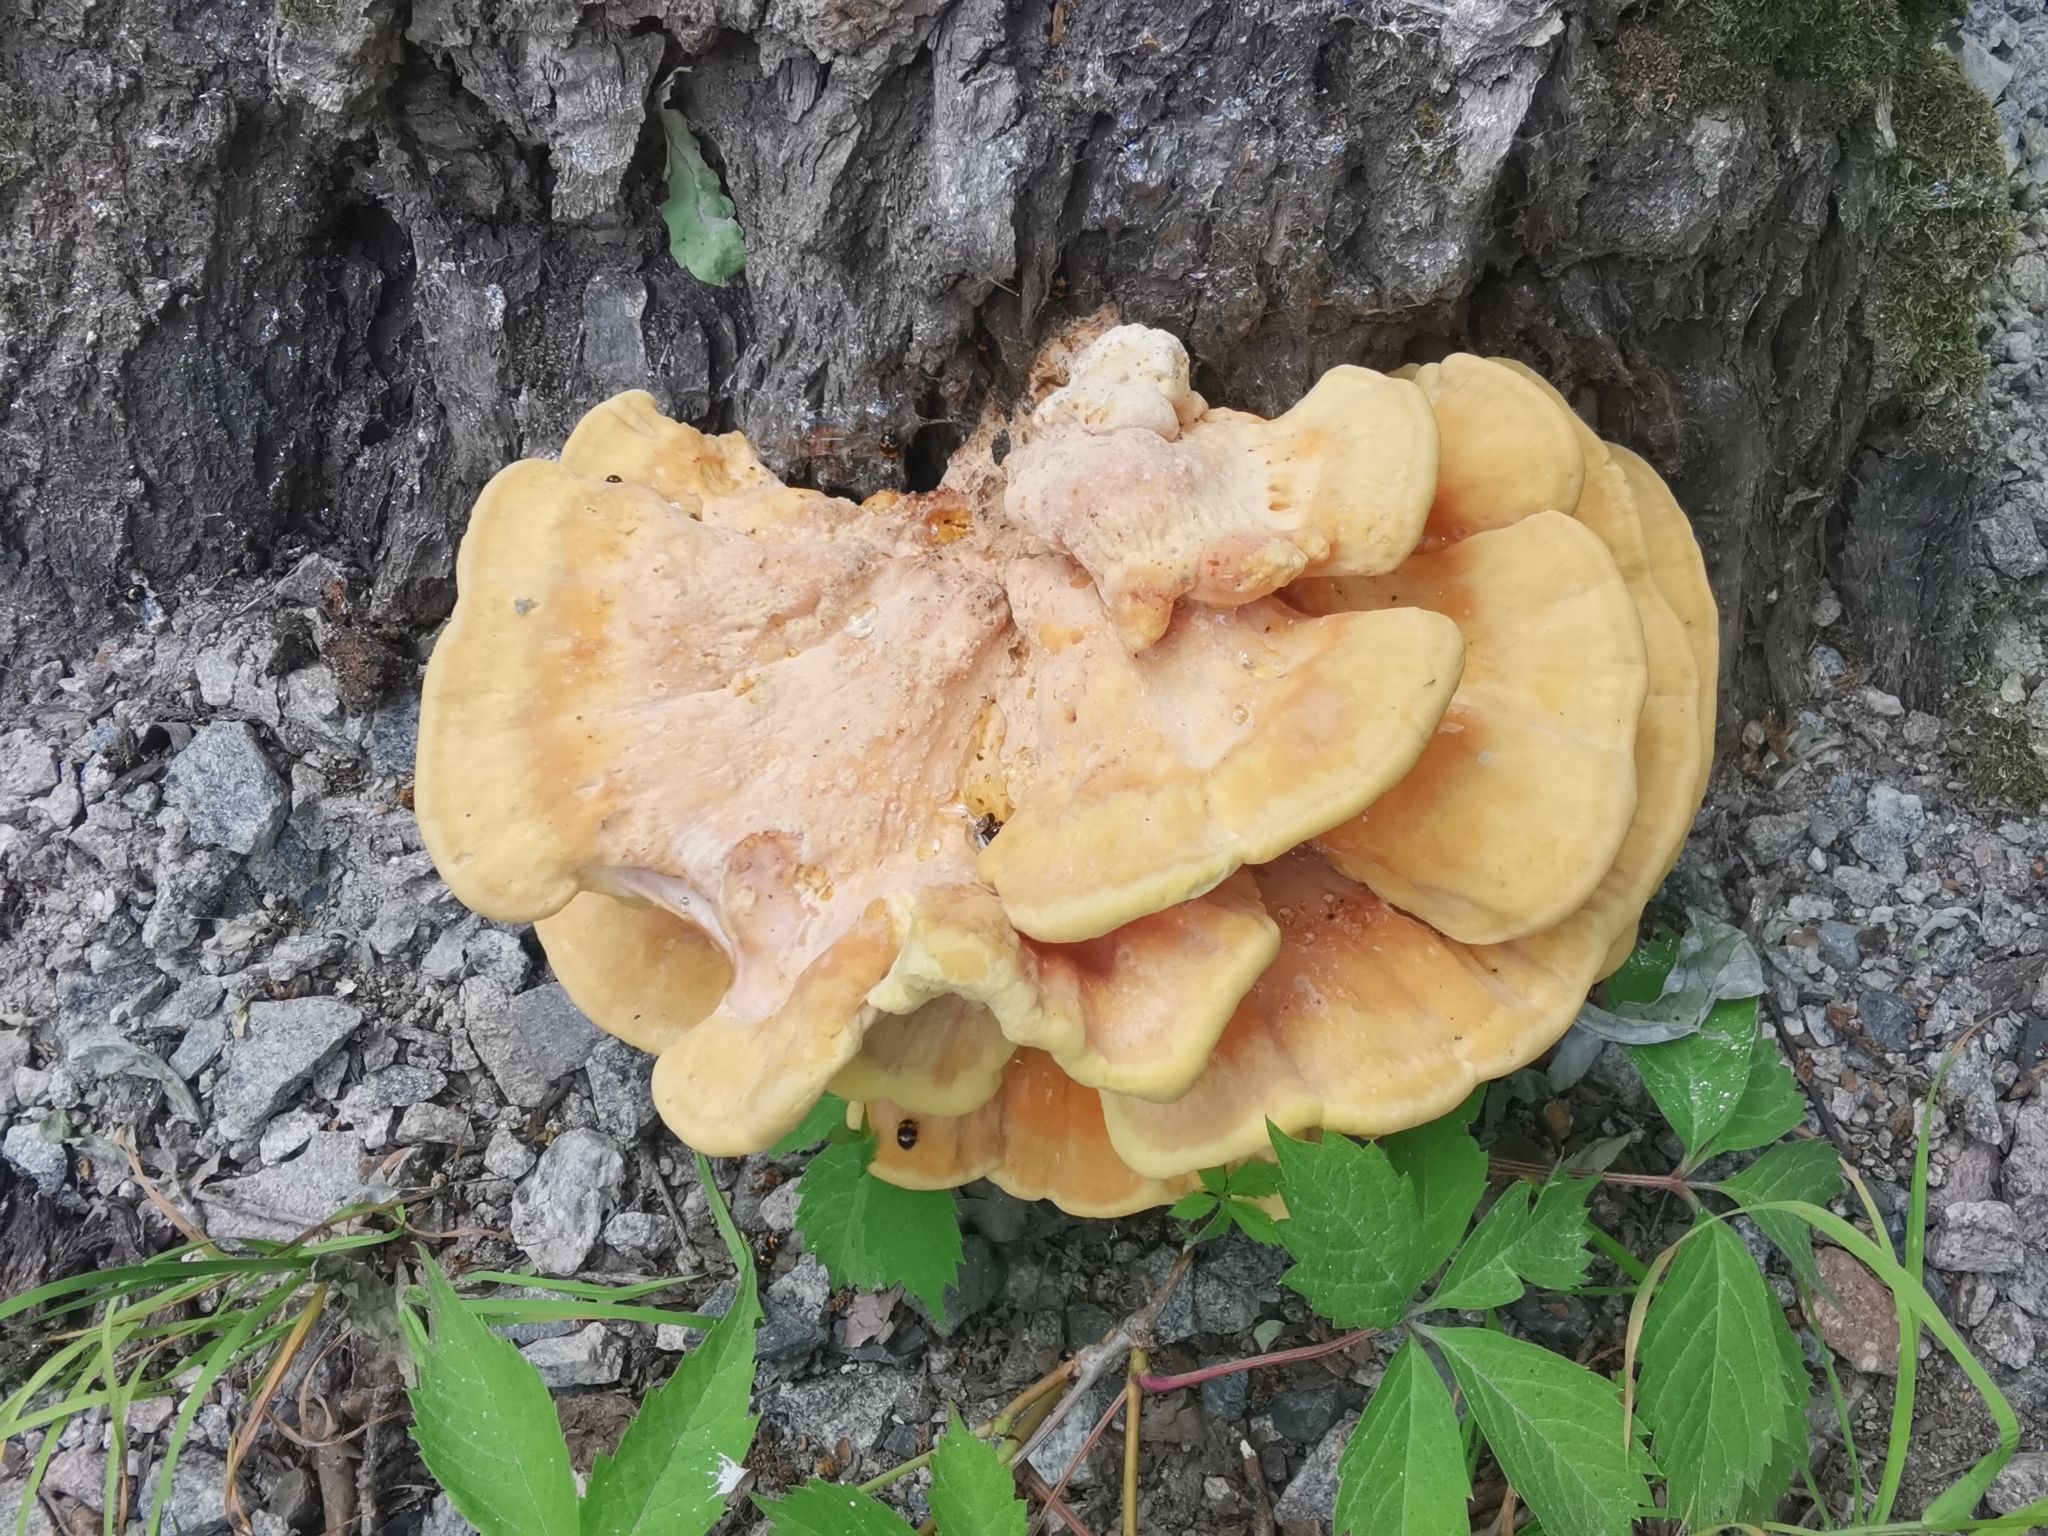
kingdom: Fungi
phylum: Basidiomycota
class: Agaricomycetes
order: Polyporales
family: Laetiporaceae
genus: Laetiporus
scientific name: Laetiporus sulphureus
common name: Chicken of the woods
